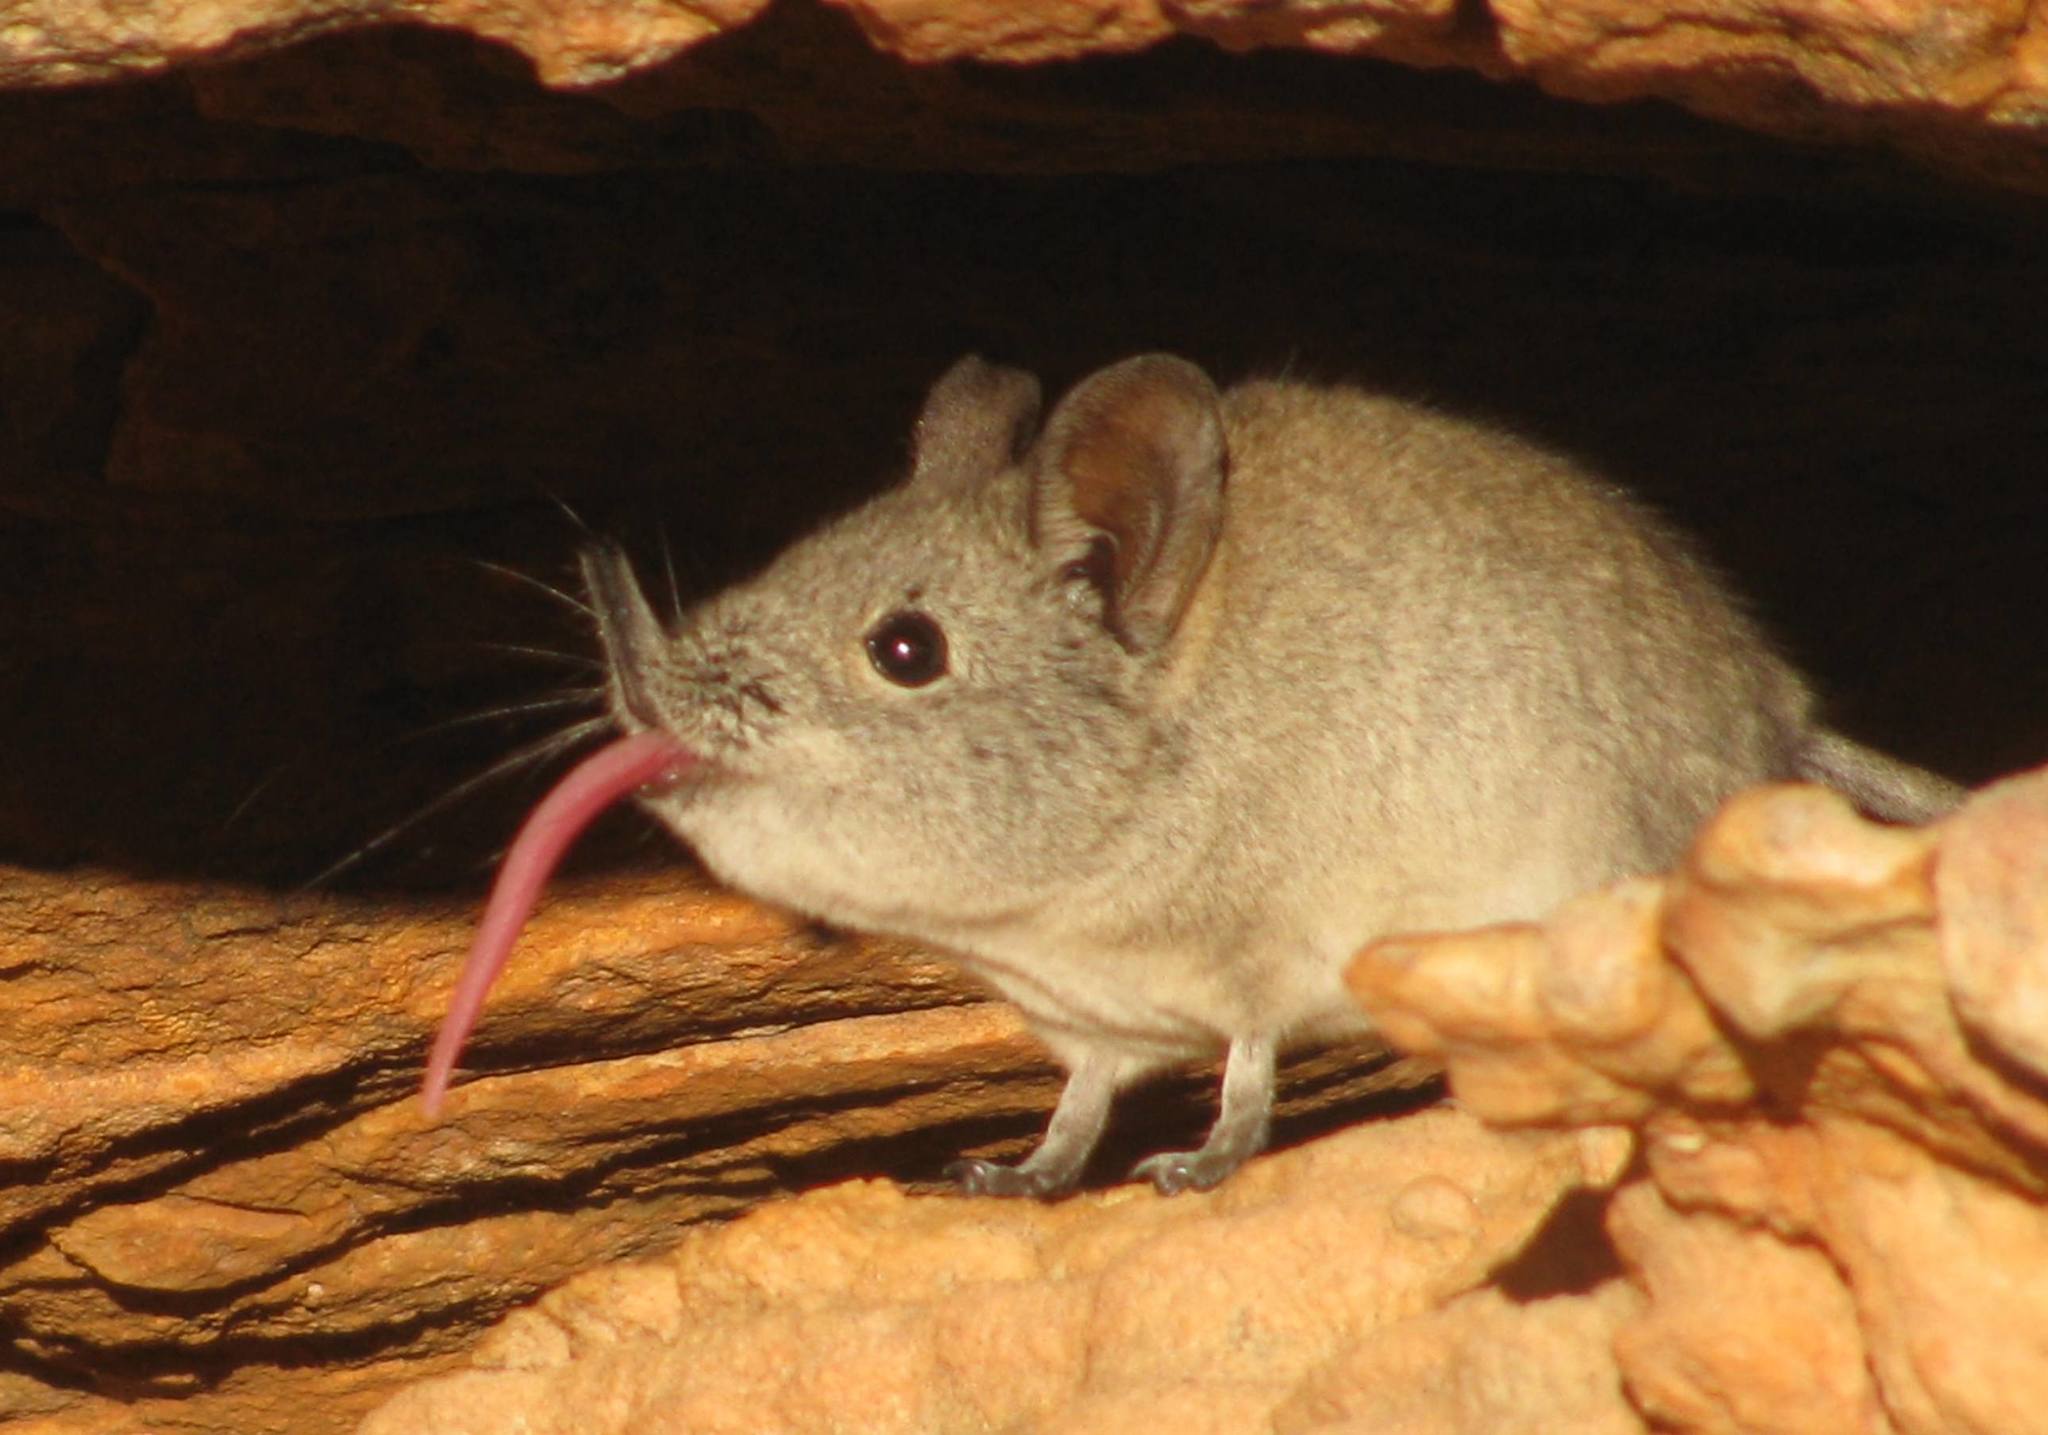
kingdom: Animalia
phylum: Chordata
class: Mammalia
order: Macroscelidea
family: Macroscelididae
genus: Elephantulus
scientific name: Elephantulus edwardii
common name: Cape elephant shrew
